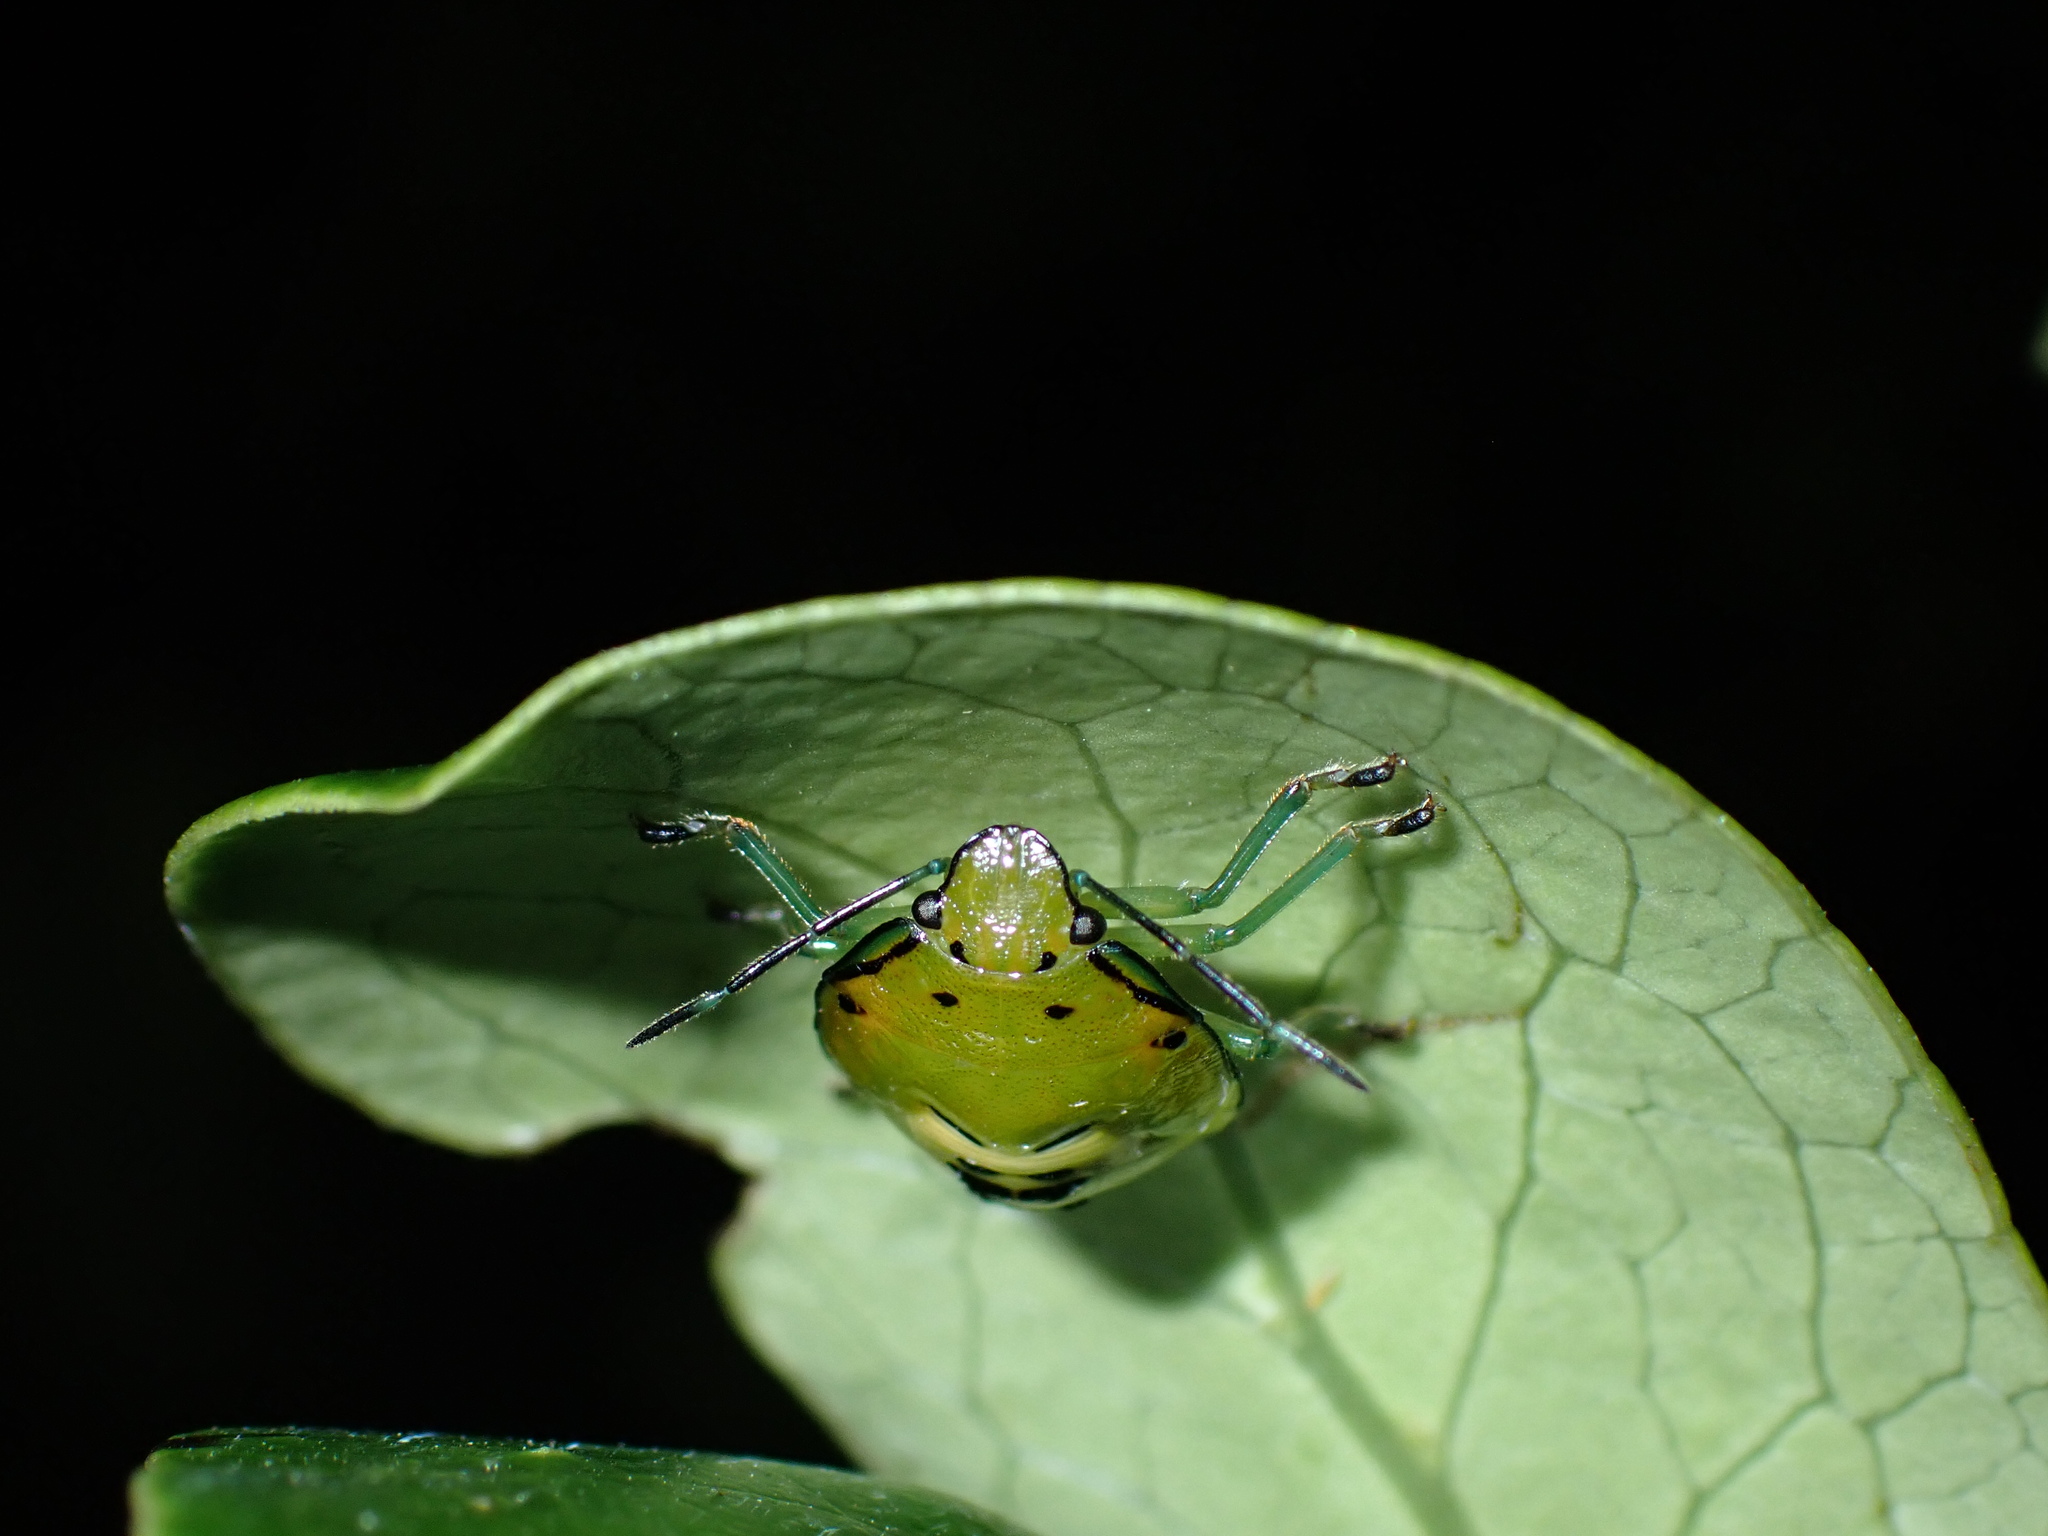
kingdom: Animalia
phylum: Arthropoda
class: Insecta
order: Hemiptera
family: Pentatomidae
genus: Glaucias
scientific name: Glaucias amyota
